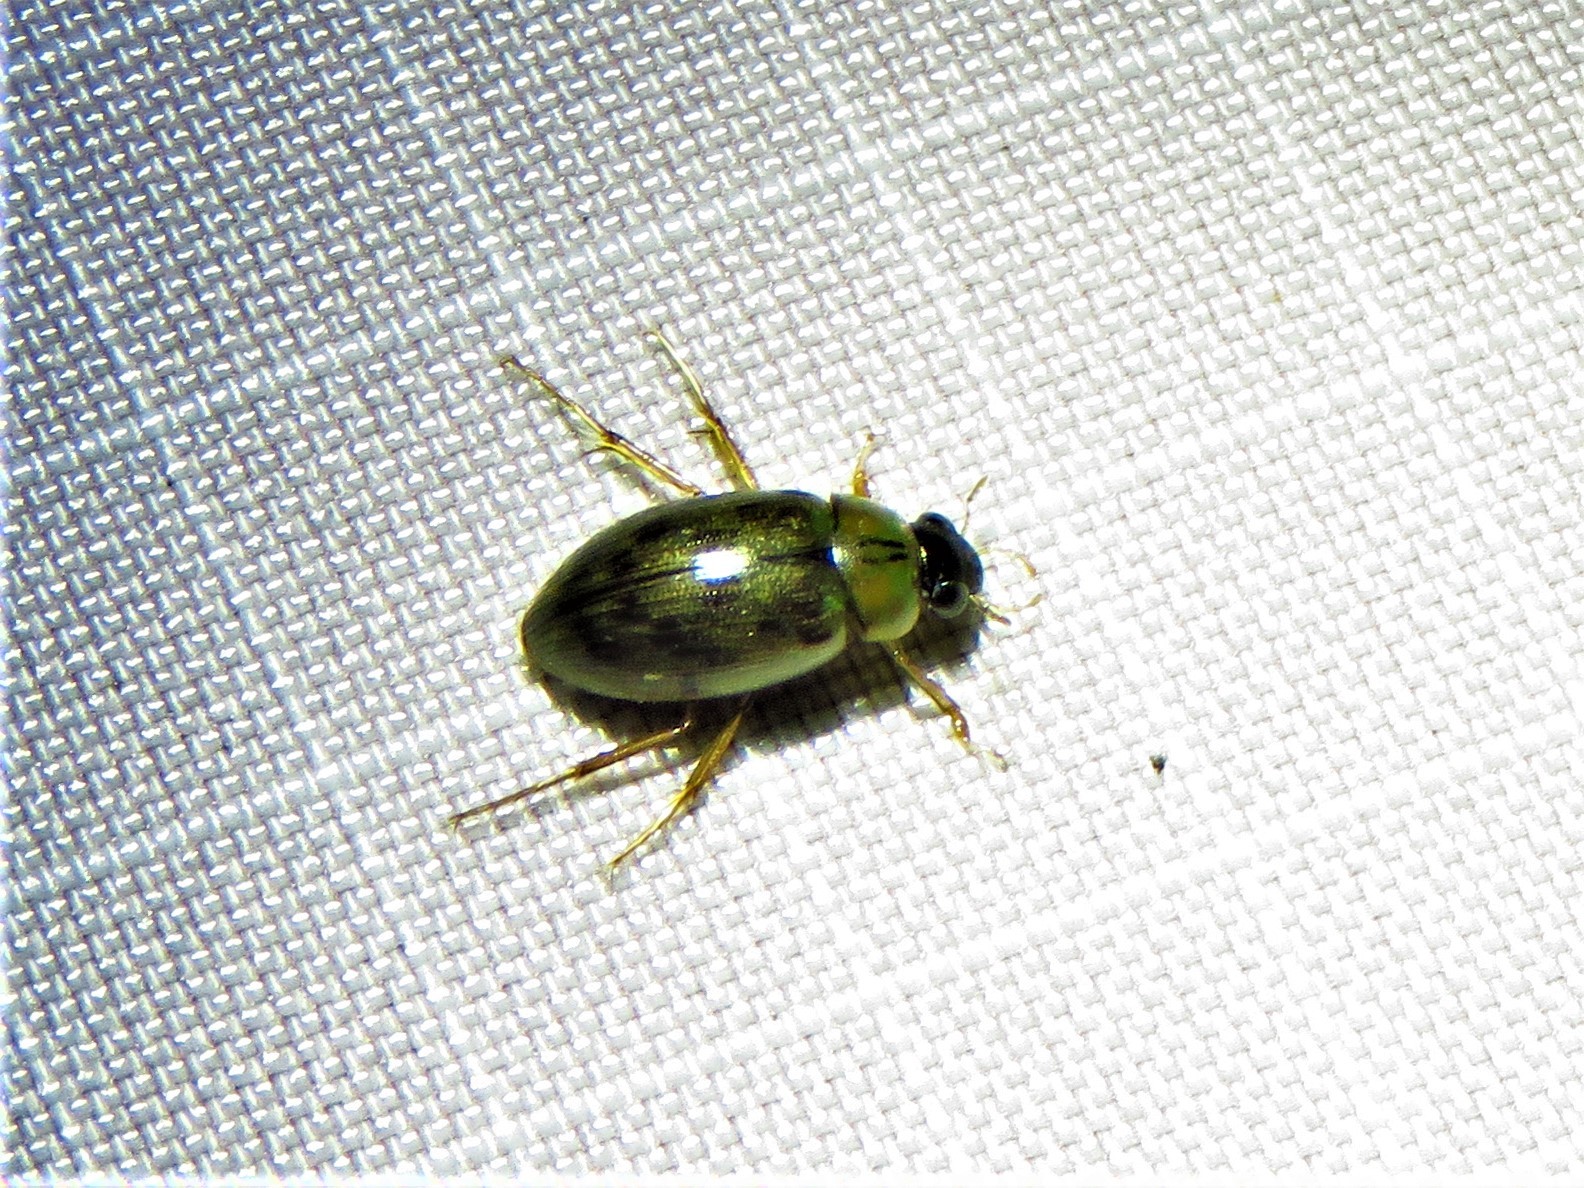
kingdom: Animalia
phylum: Arthropoda
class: Insecta
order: Coleoptera
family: Hydrophilidae
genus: Berosus
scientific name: Berosus
